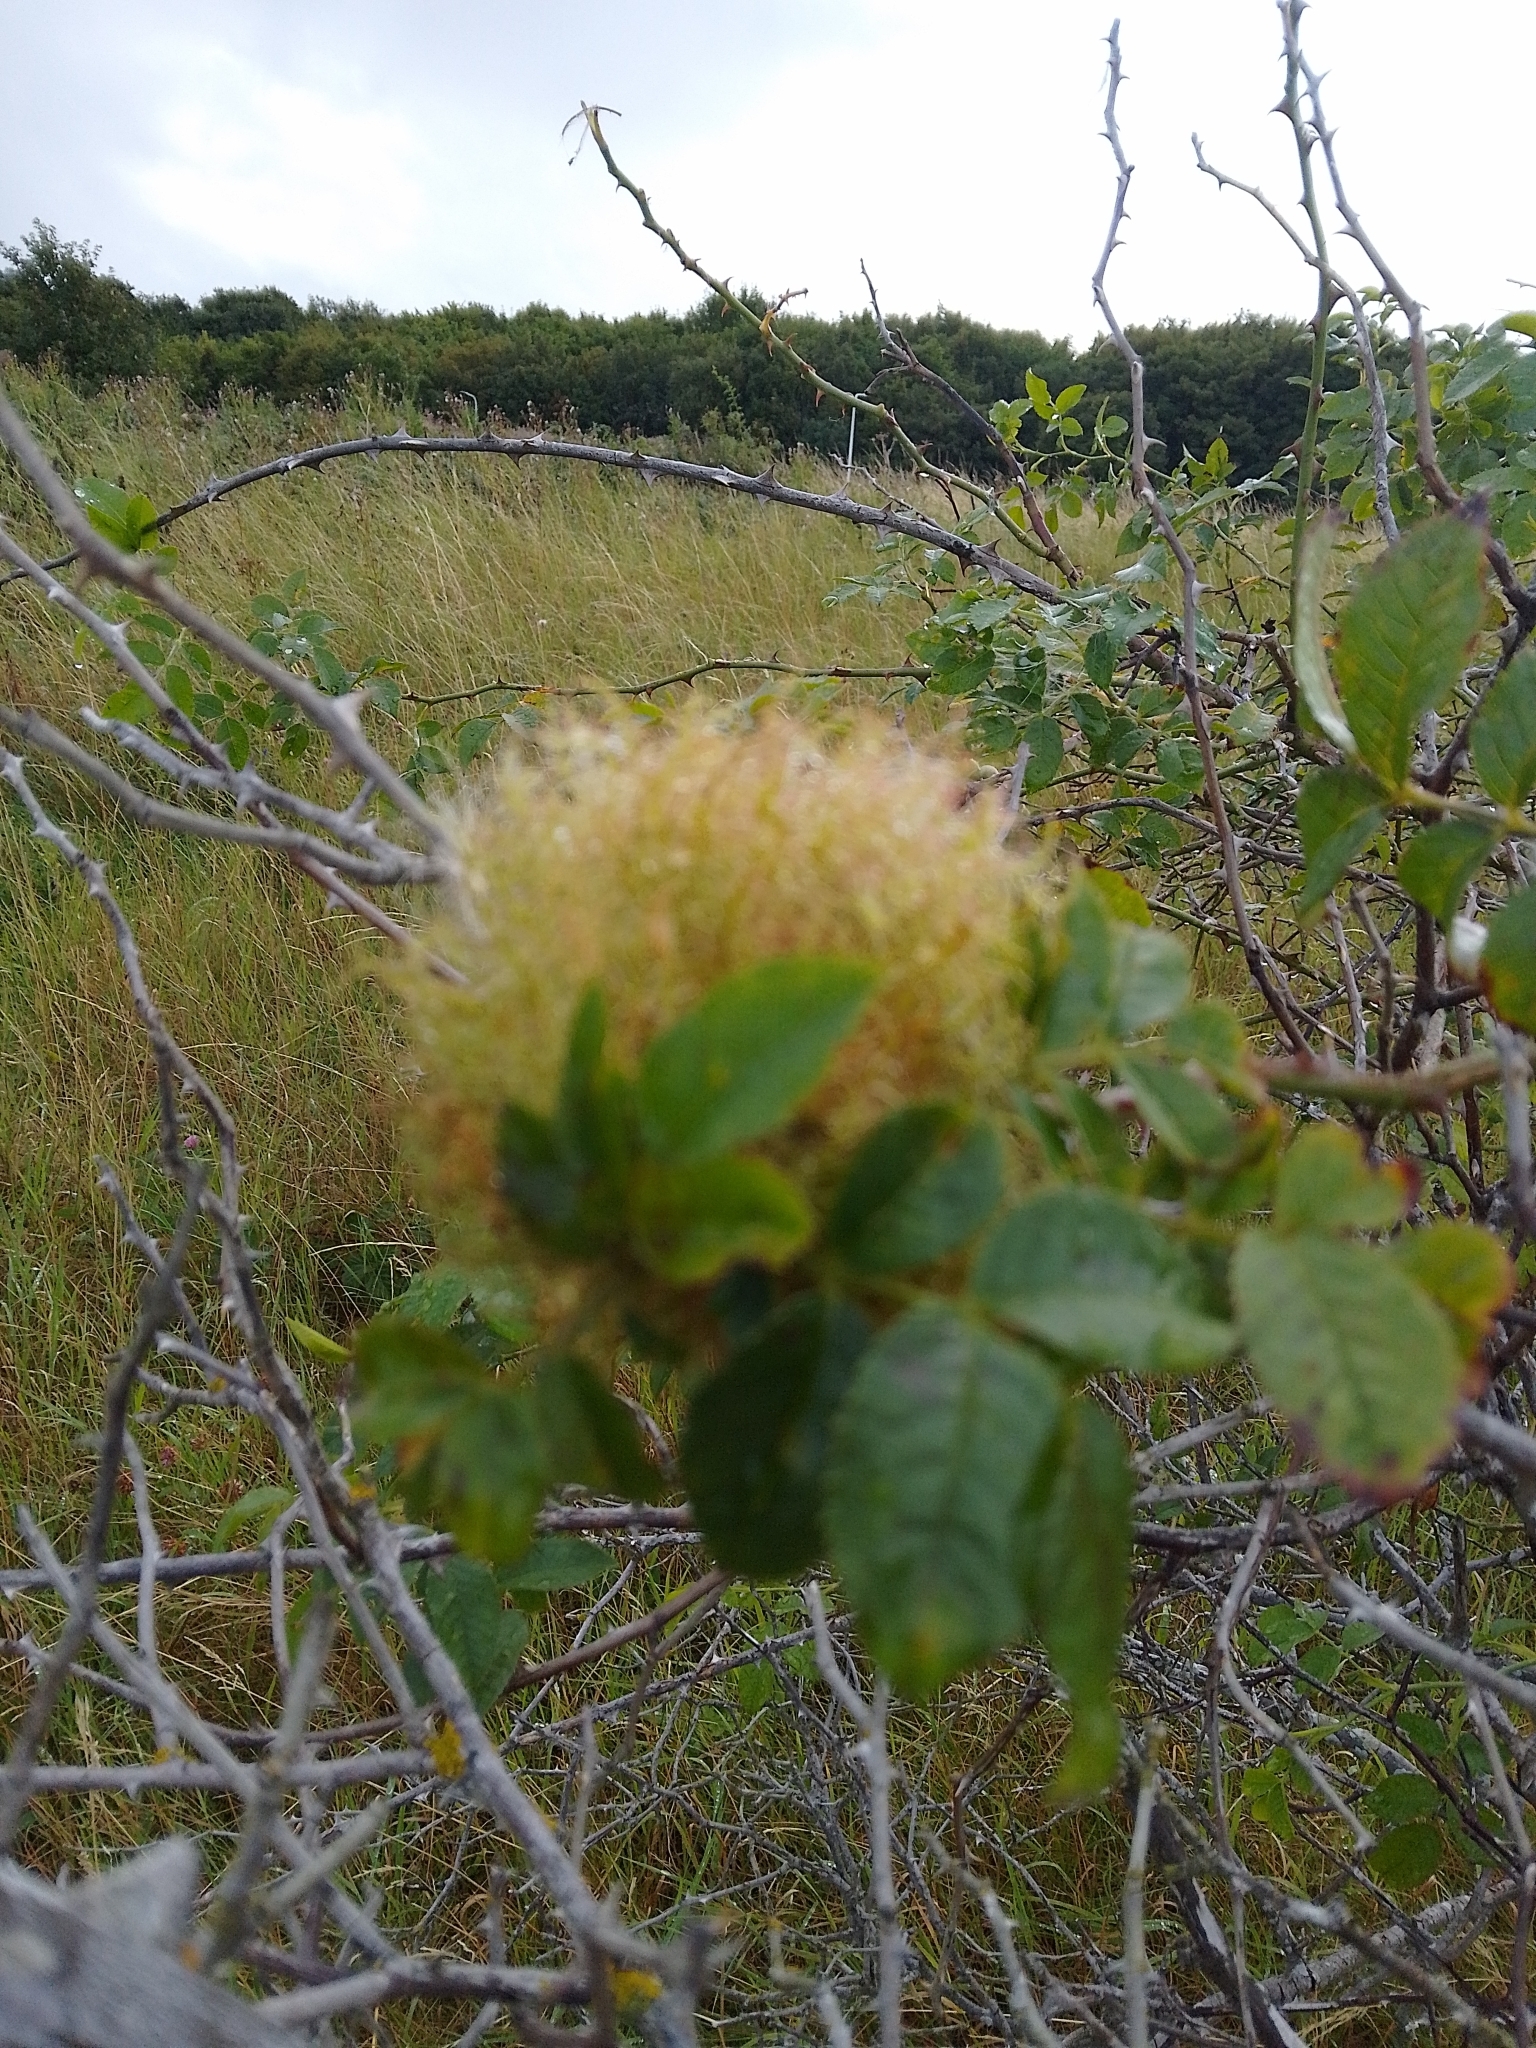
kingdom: Animalia
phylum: Arthropoda
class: Insecta
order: Hymenoptera
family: Cynipidae
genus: Diplolepis
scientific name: Diplolepis rosae
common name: Bedeguar gall
